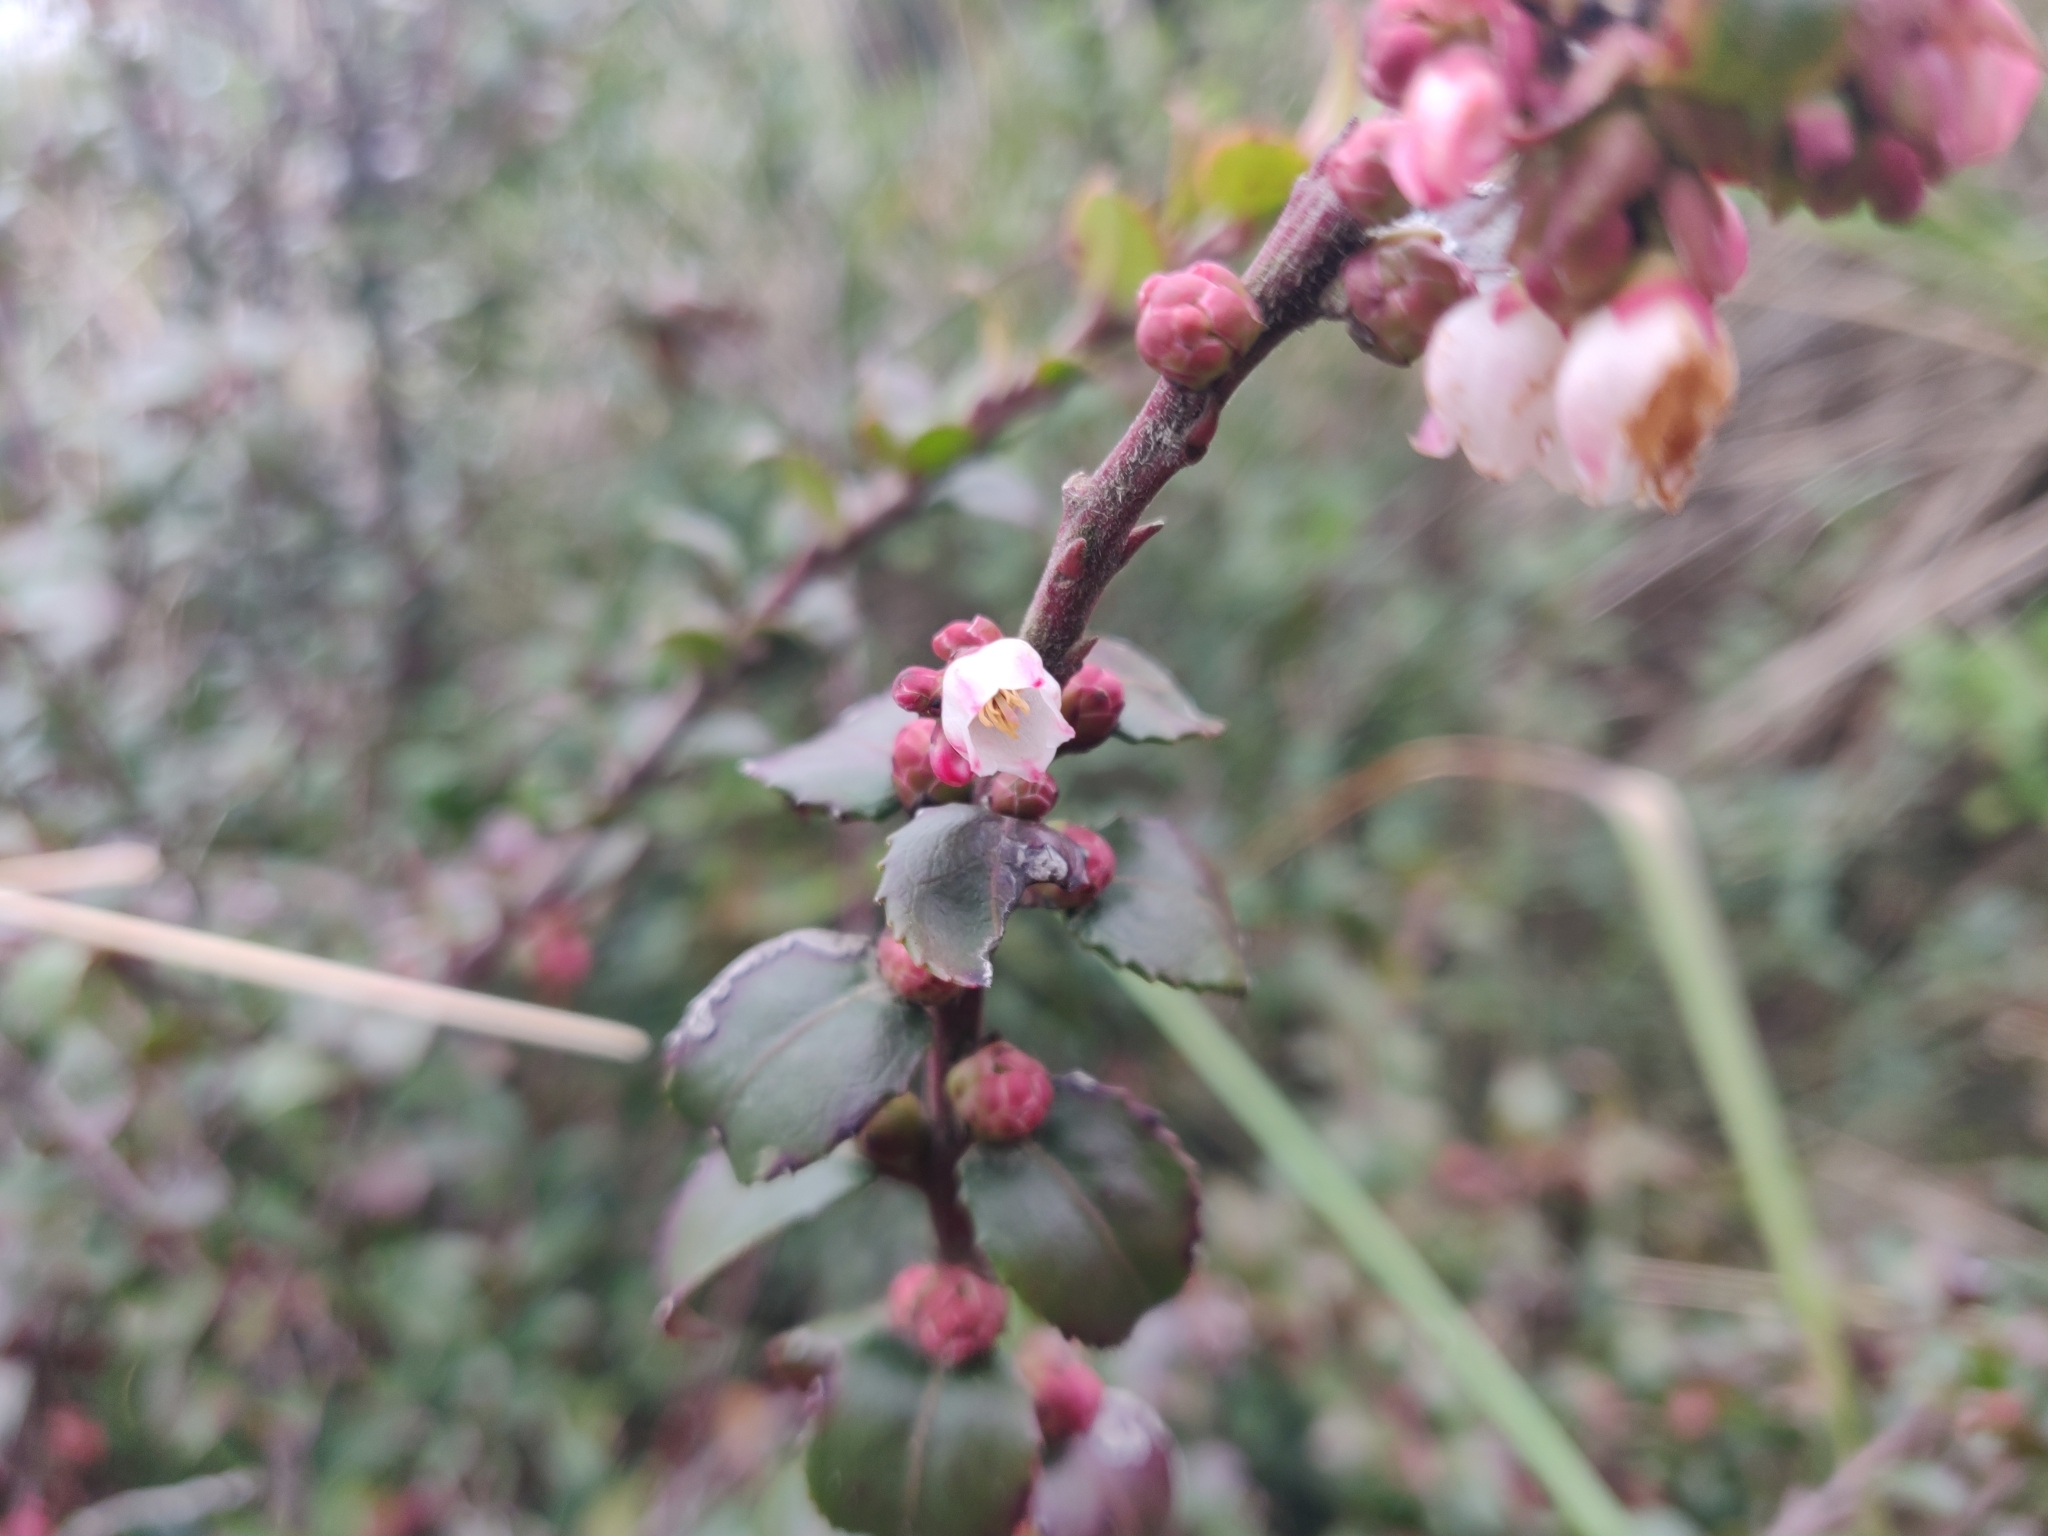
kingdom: Plantae
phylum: Tracheophyta
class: Magnoliopsida
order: Ericales
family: Ericaceae
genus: Vaccinium
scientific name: Vaccinium ovatum
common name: California-huckleberry
